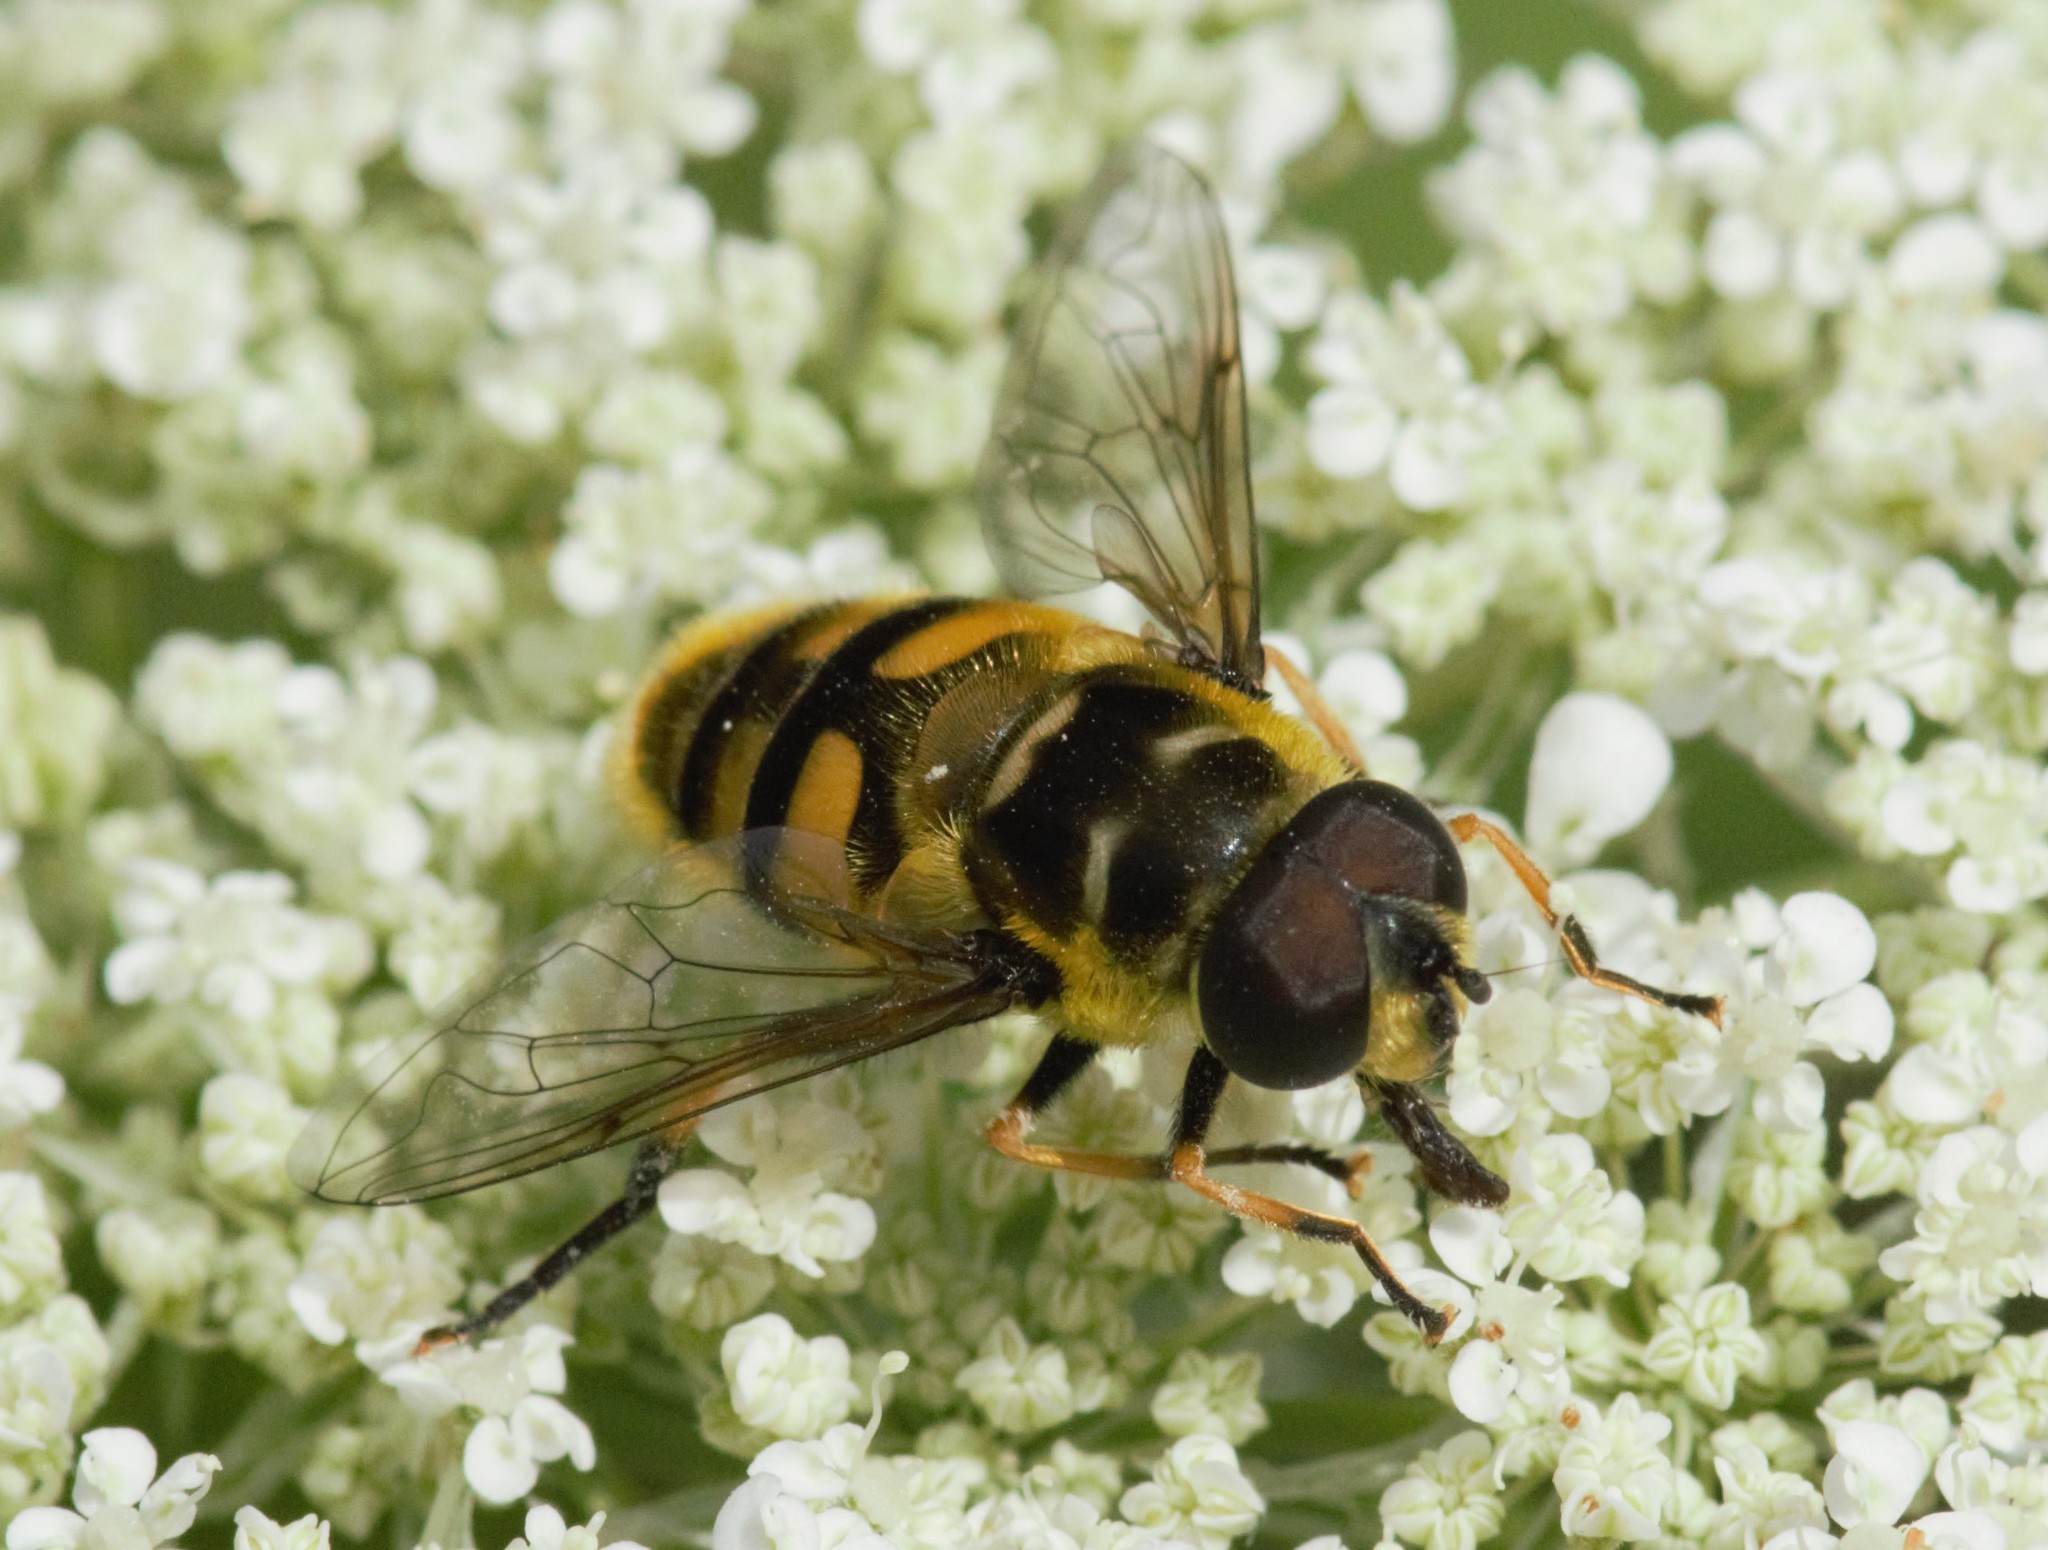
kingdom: Animalia
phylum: Arthropoda
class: Insecta
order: Diptera
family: Syrphidae
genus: Myathropa
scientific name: Myathropa florea
